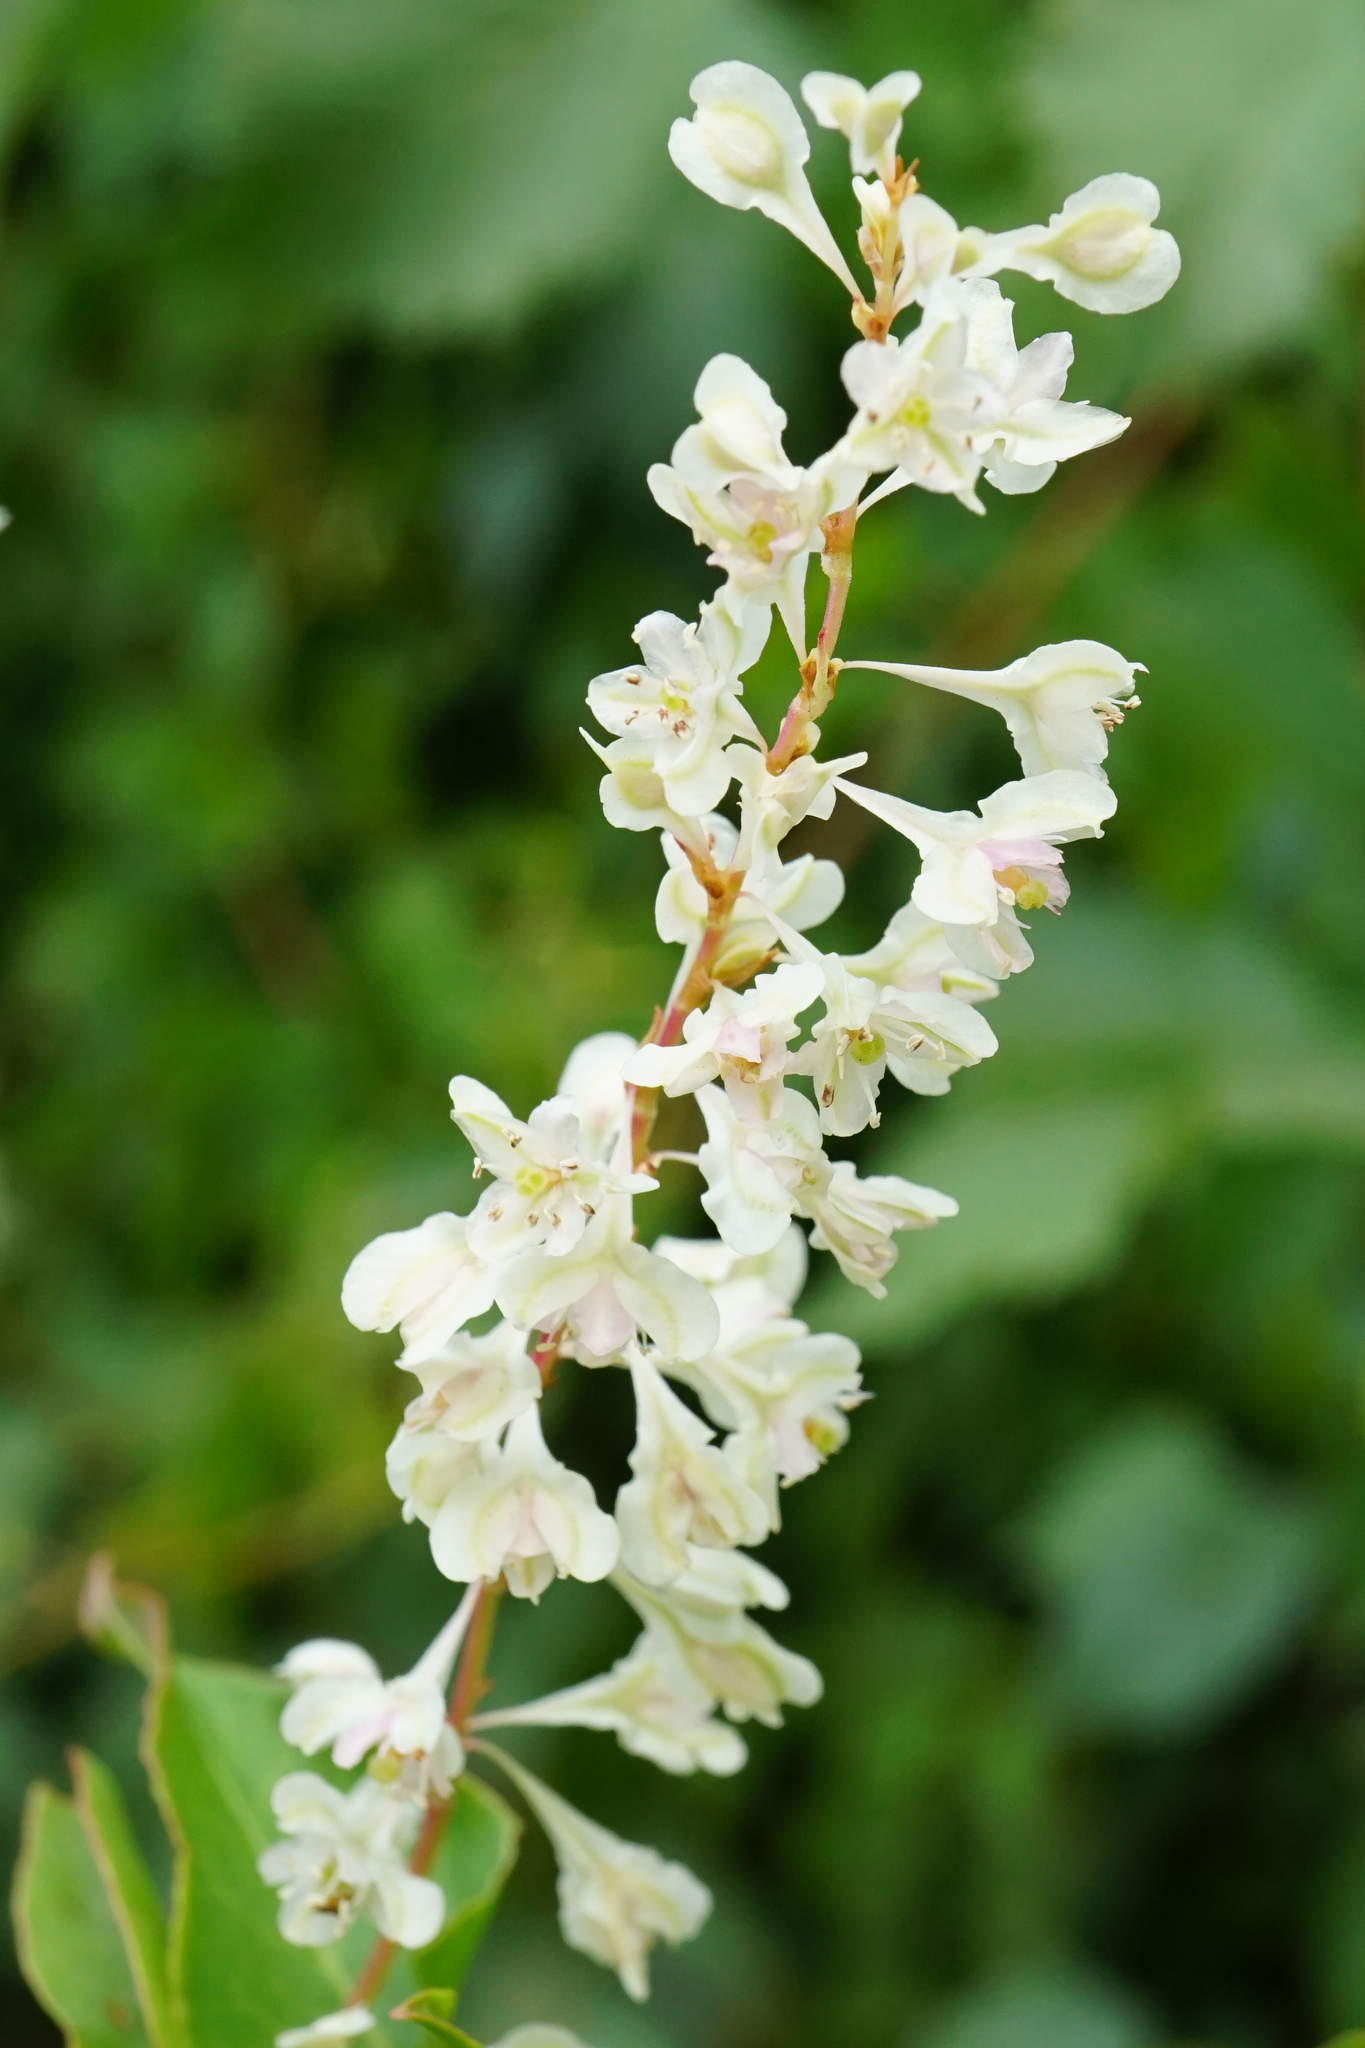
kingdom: Plantae
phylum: Tracheophyta
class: Magnoliopsida
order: Caryophyllales
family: Polygonaceae
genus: Fallopia
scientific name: Fallopia baldschuanica
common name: Russian-vine
